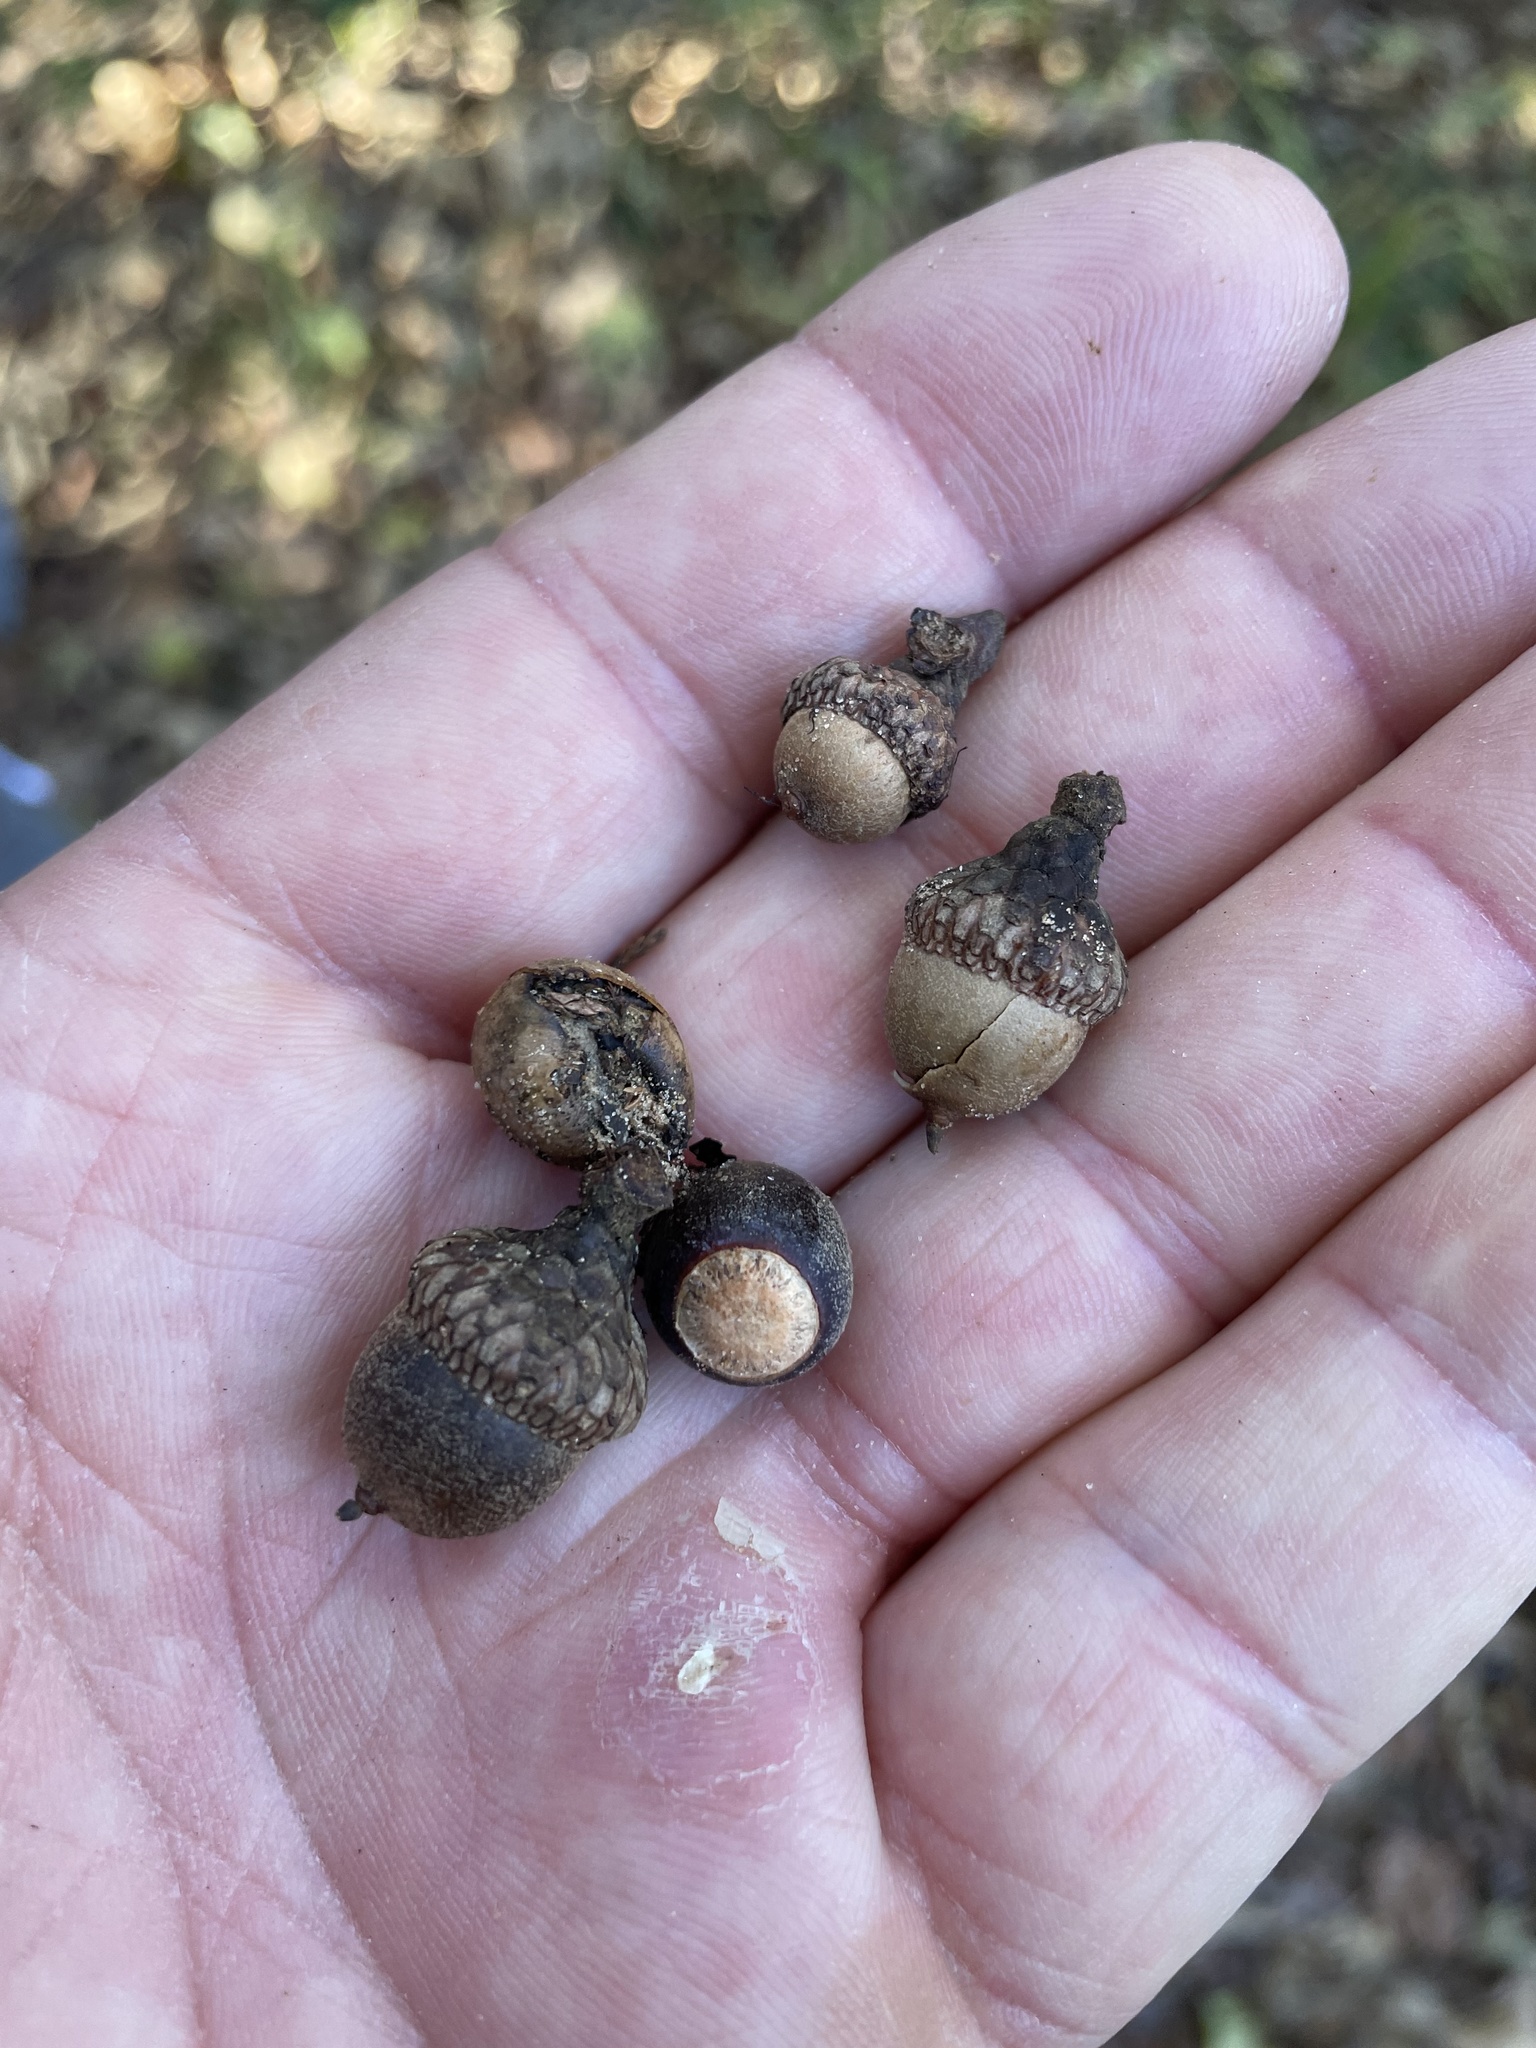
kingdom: Plantae
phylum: Tracheophyta
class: Magnoliopsida
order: Fagales
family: Fagaceae
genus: Quercus
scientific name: Quercus falcata
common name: Southern red oak
